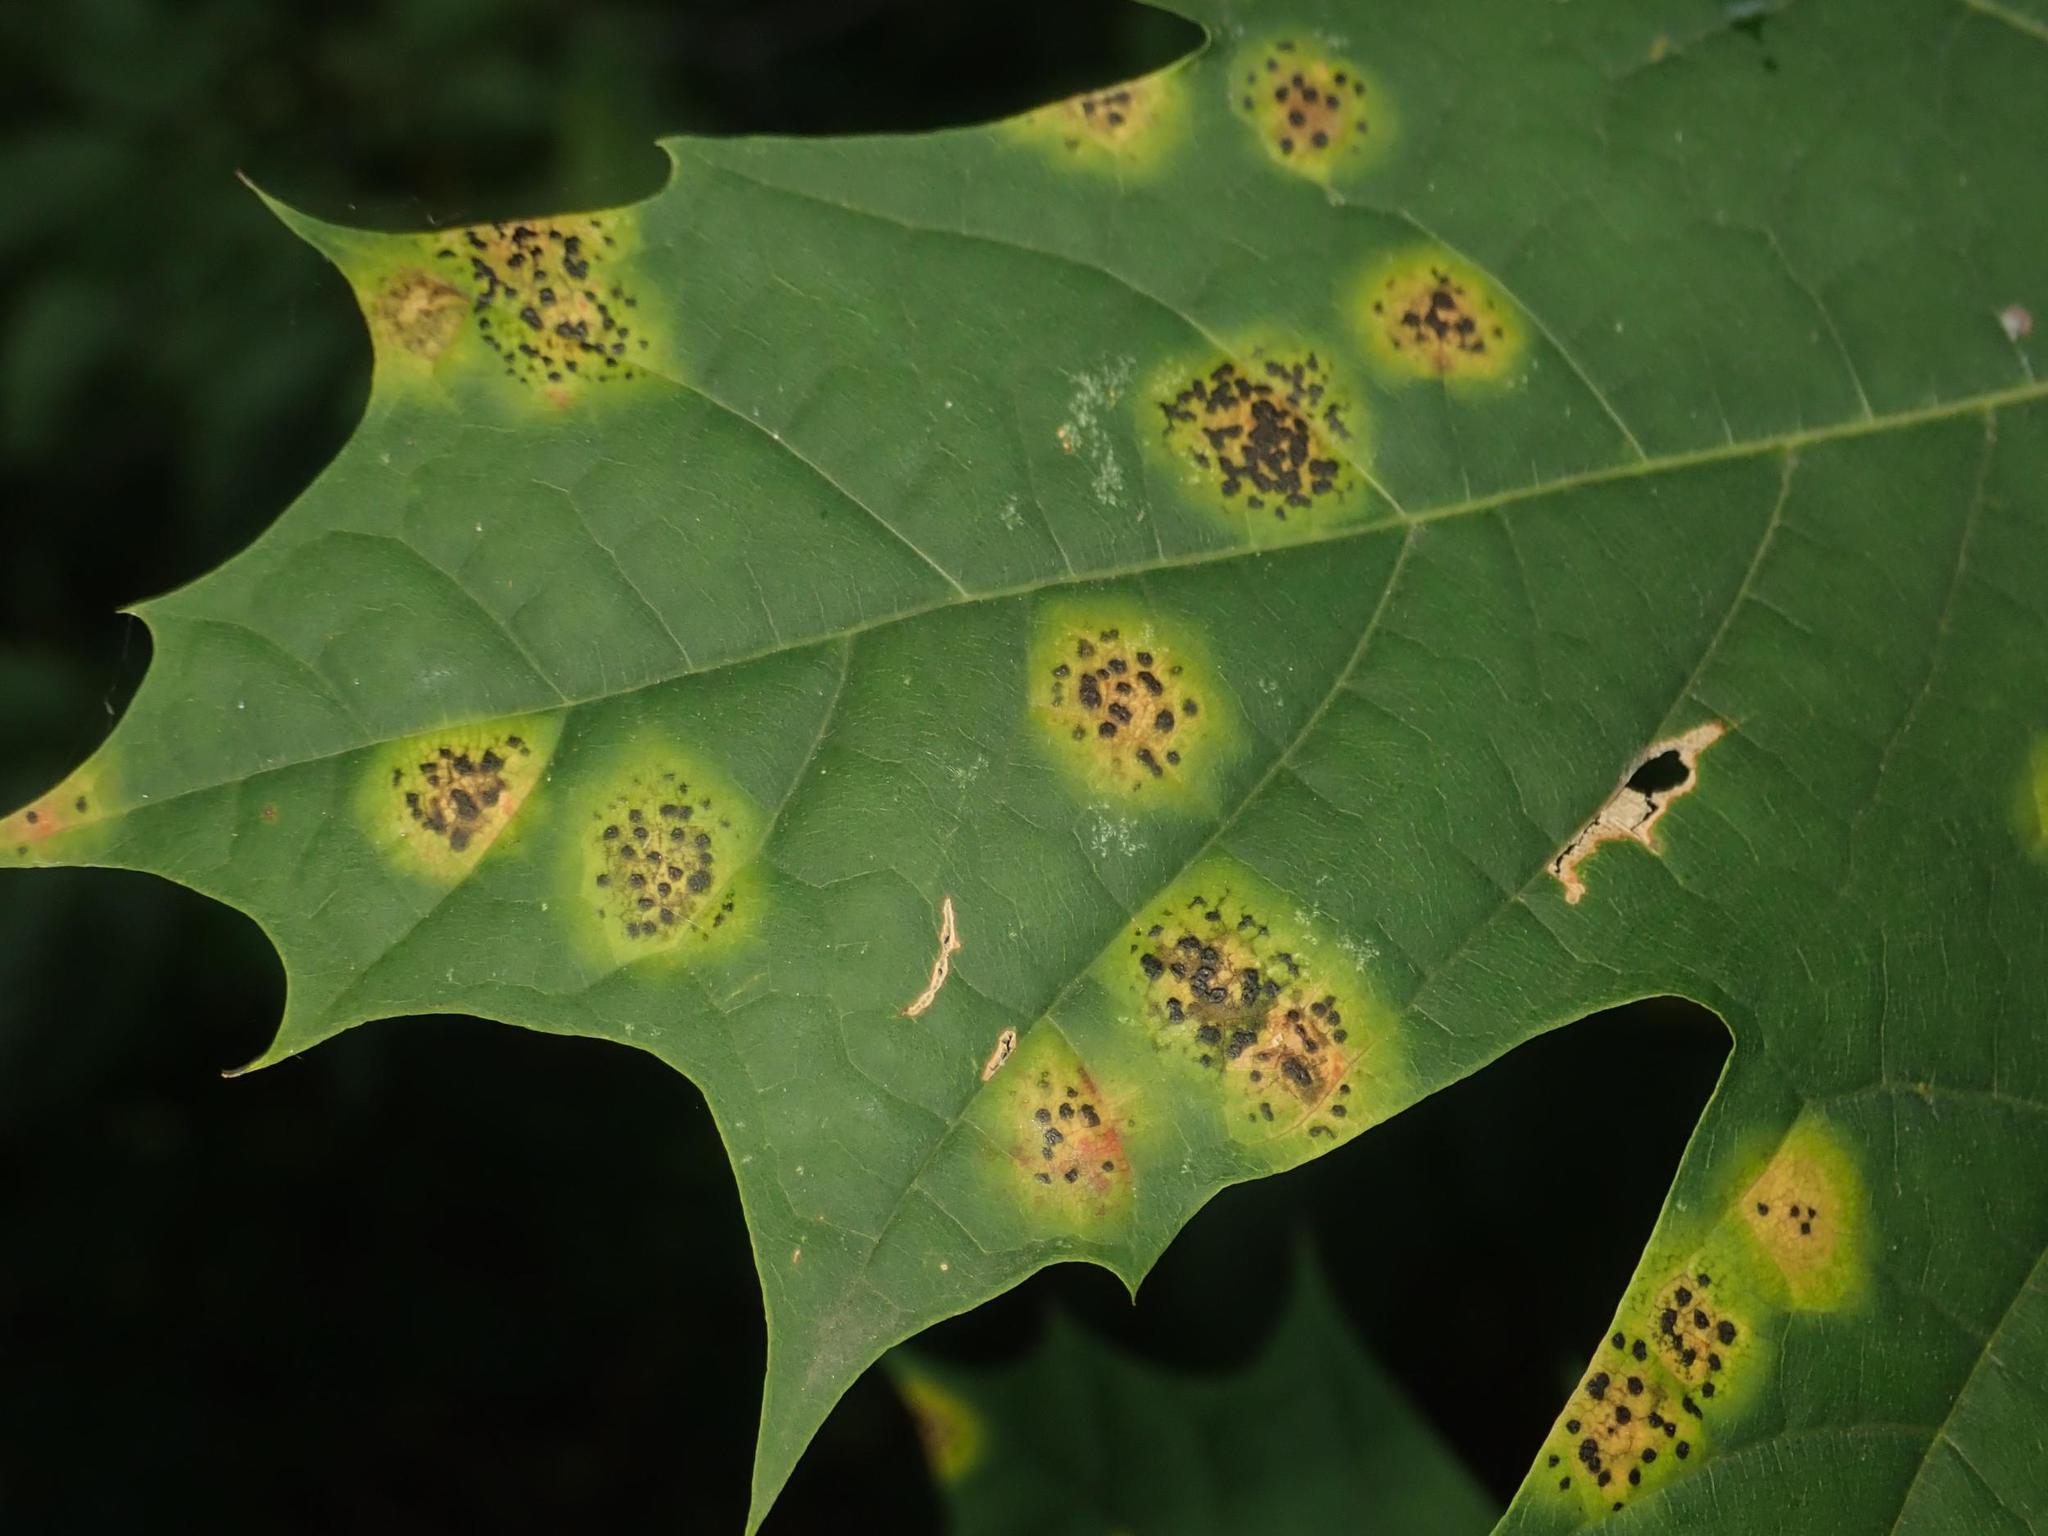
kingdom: Fungi
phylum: Ascomycota
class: Leotiomycetes
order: Rhytismatales
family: Rhytismataceae
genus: Rhytisma
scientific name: Rhytisma acerinum
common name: European tar spot
